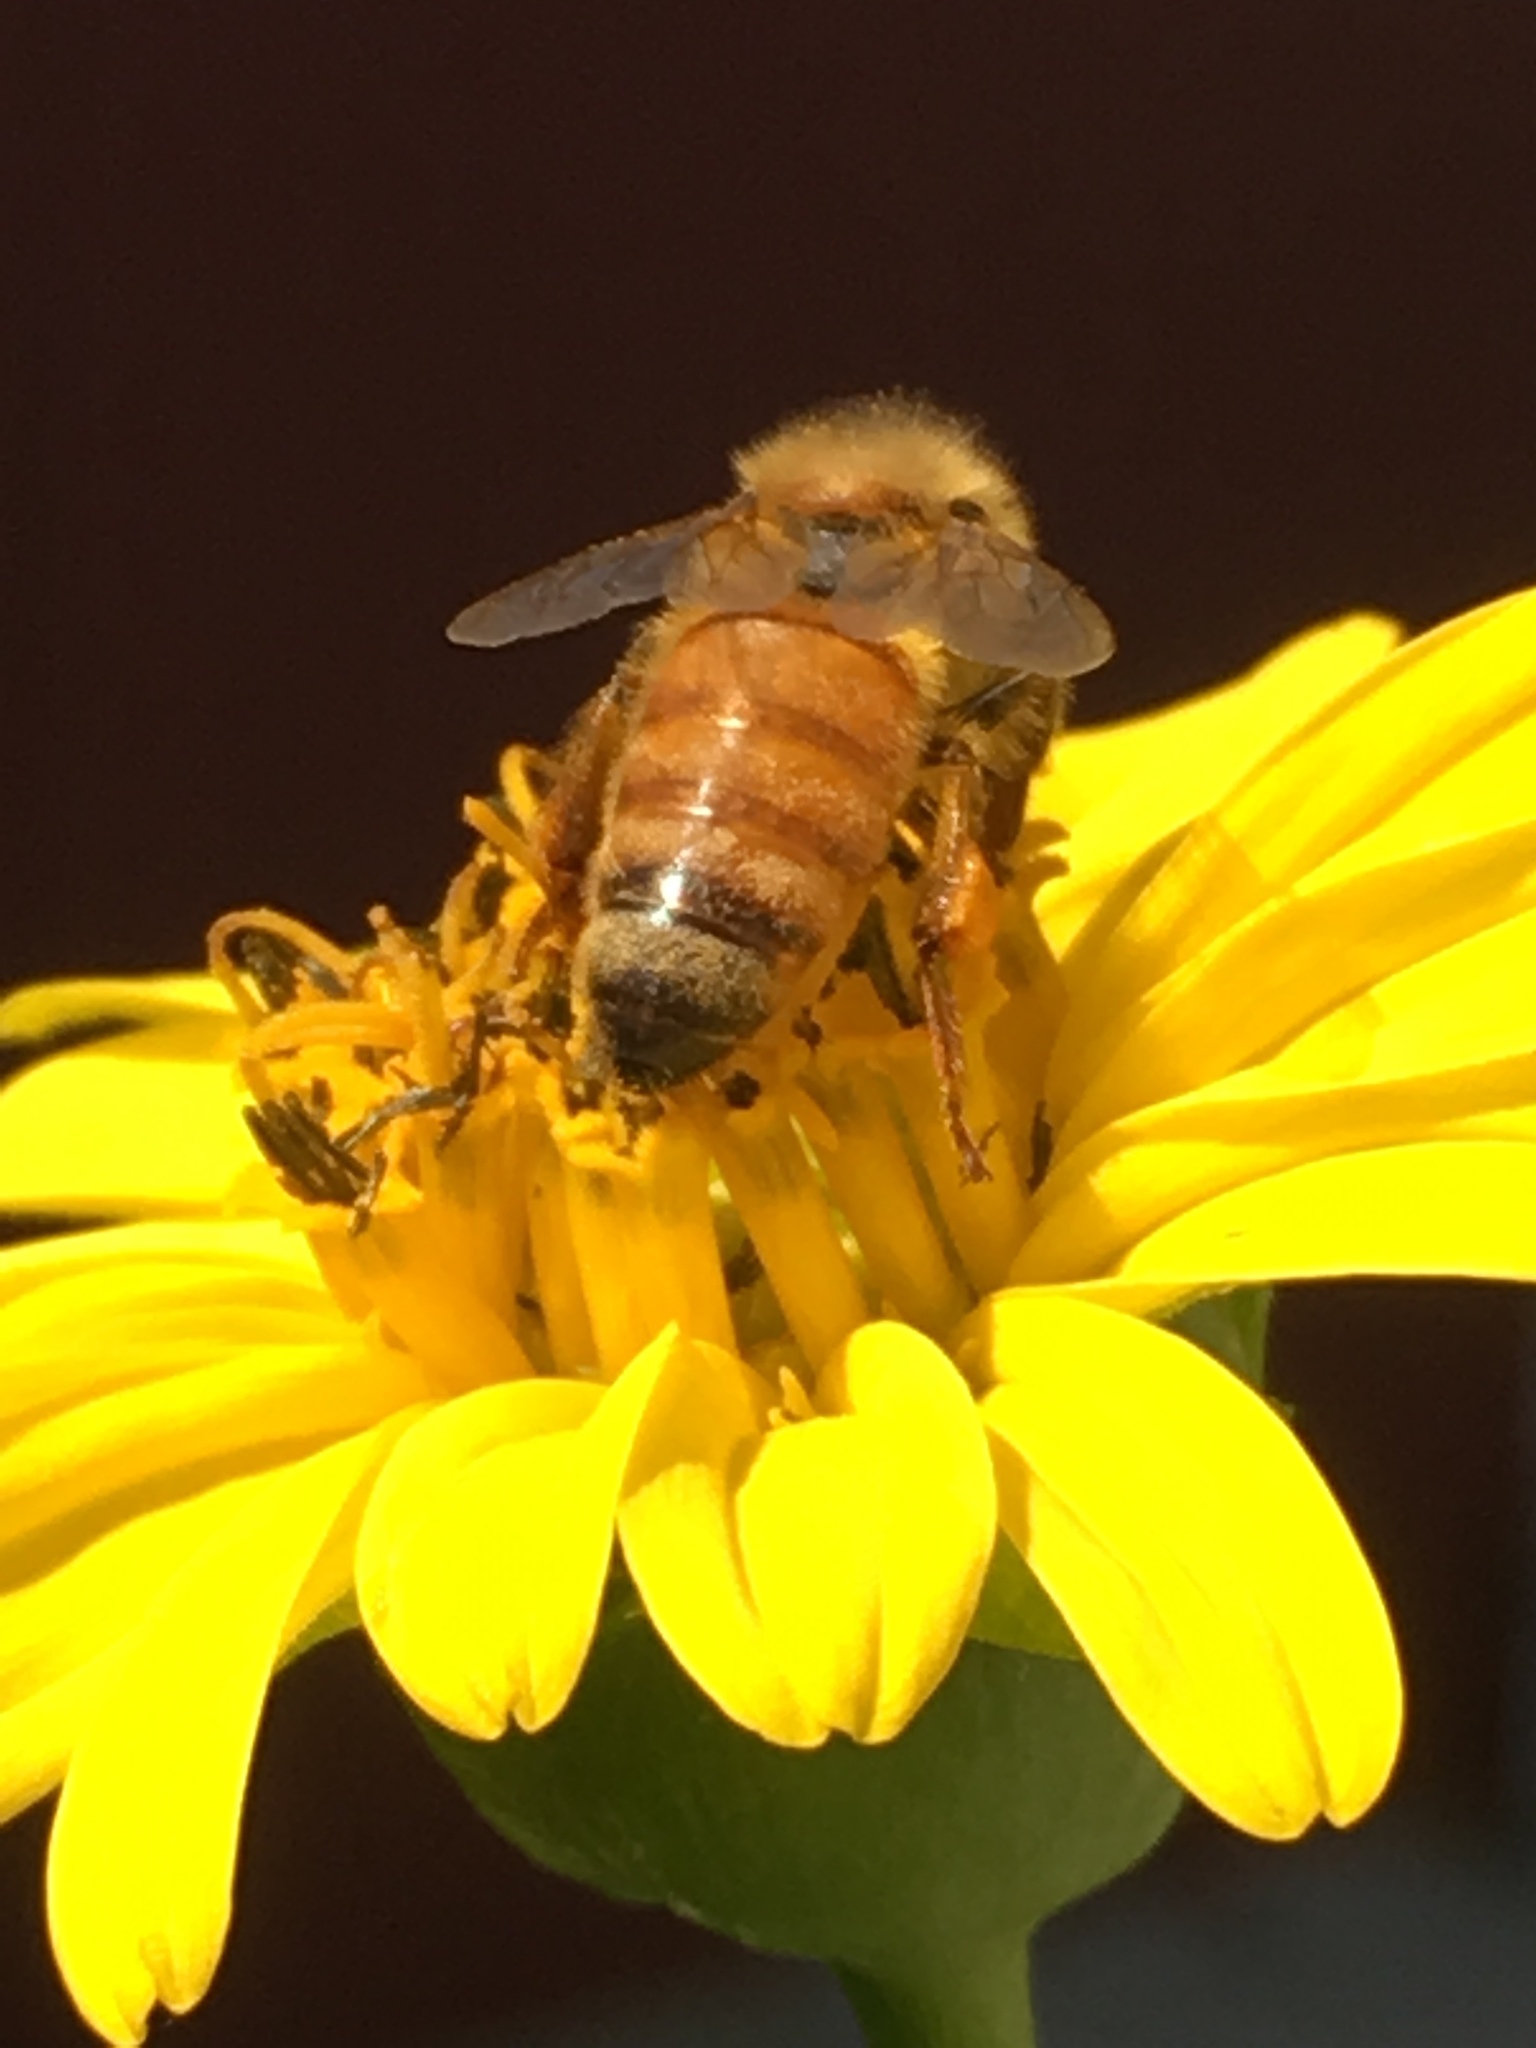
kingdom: Animalia
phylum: Arthropoda
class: Insecta
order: Hymenoptera
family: Apidae
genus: Apis
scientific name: Apis mellifera
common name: Honey bee
